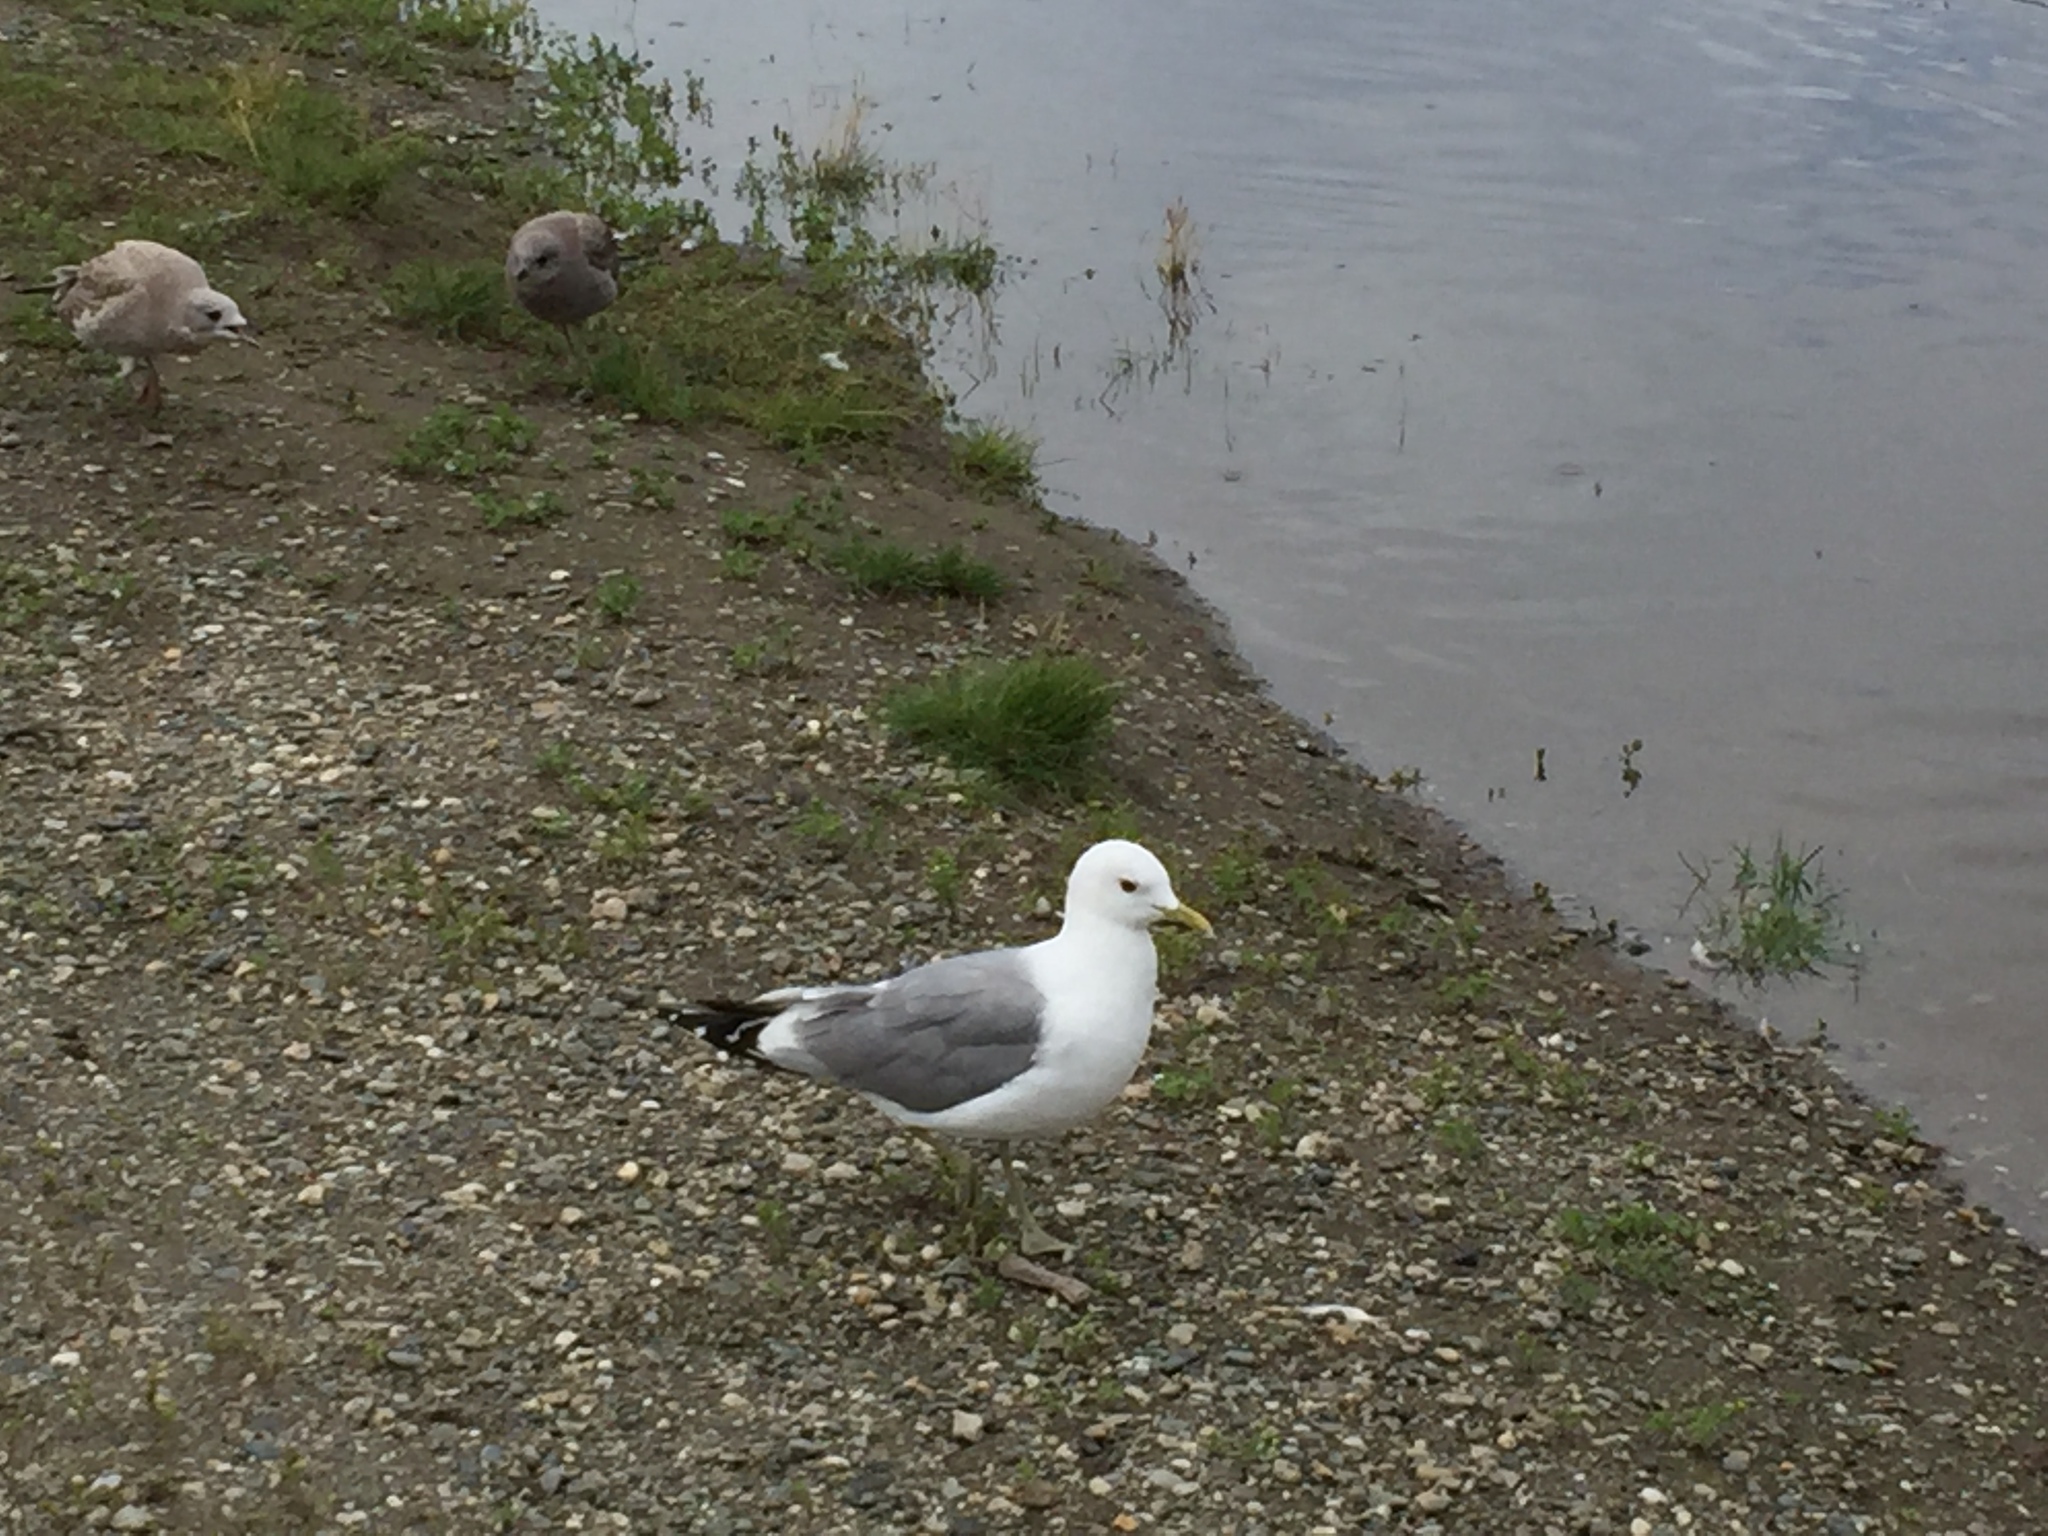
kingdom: Animalia
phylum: Chordata
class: Aves
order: Charadriiformes
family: Laridae
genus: Larus
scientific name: Larus brachyrhynchus
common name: Short-billed gull
